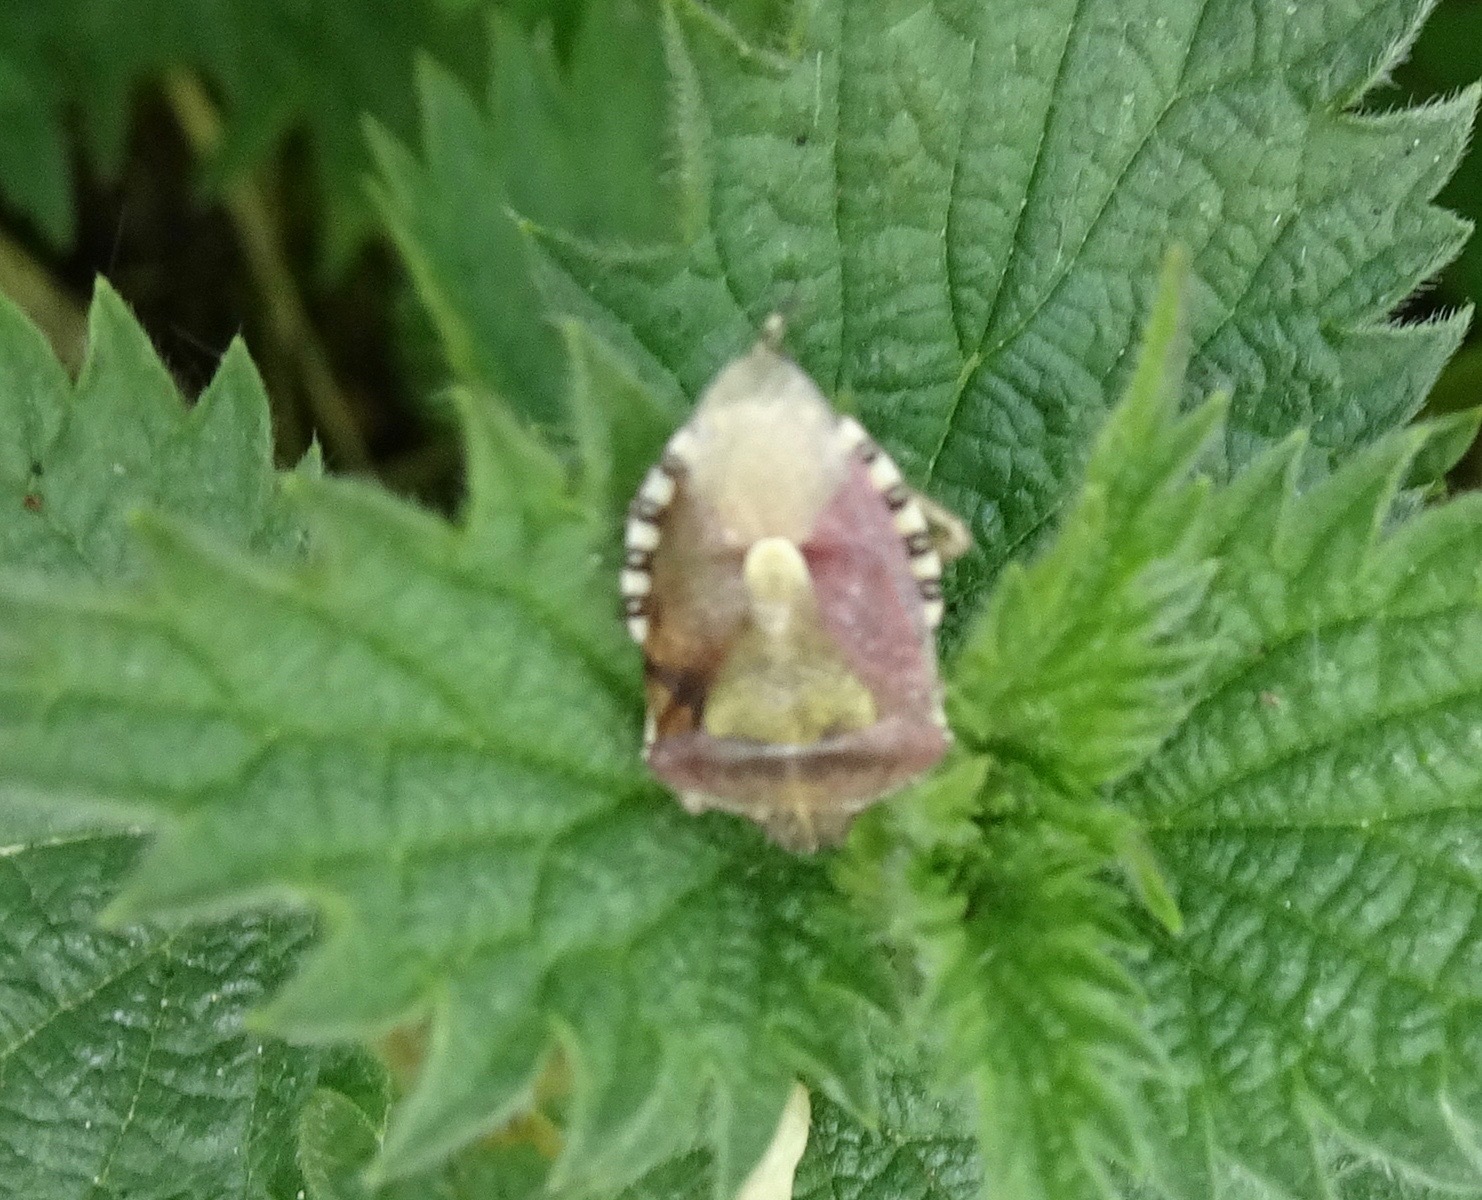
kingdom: Animalia
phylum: Arthropoda
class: Insecta
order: Hemiptera
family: Pentatomidae
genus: Dolycoris
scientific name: Dolycoris baccarum
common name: Sloe bug
